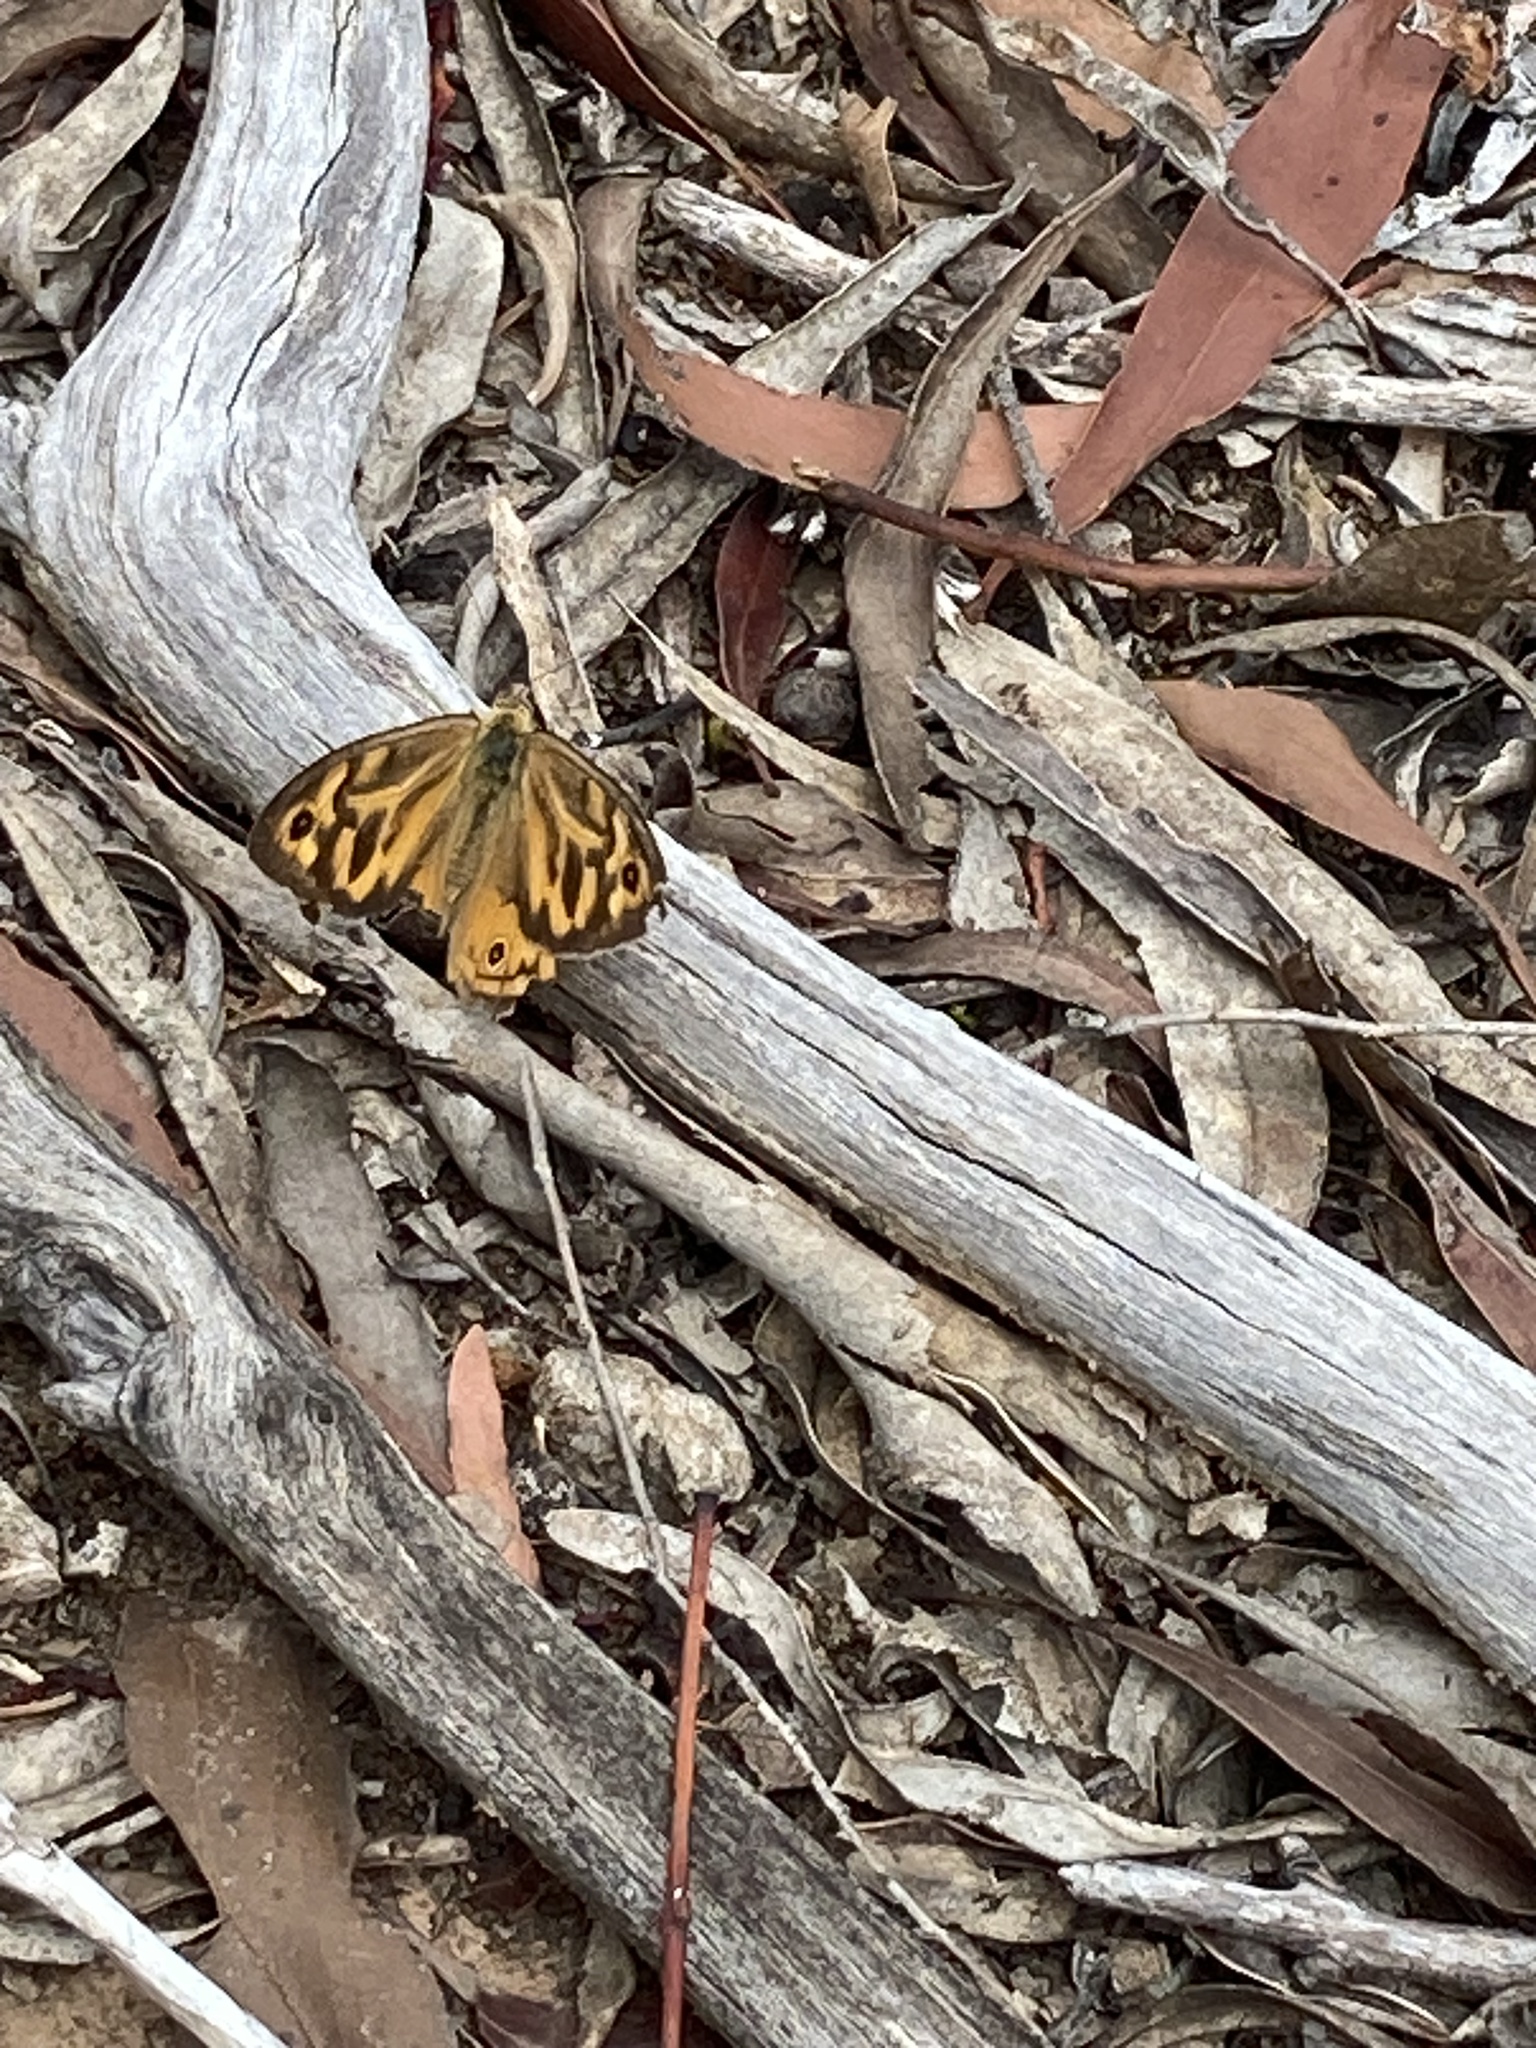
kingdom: Animalia
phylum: Arthropoda
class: Insecta
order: Lepidoptera
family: Nymphalidae
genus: Heteronympha
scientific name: Heteronympha merope
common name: Common brown
